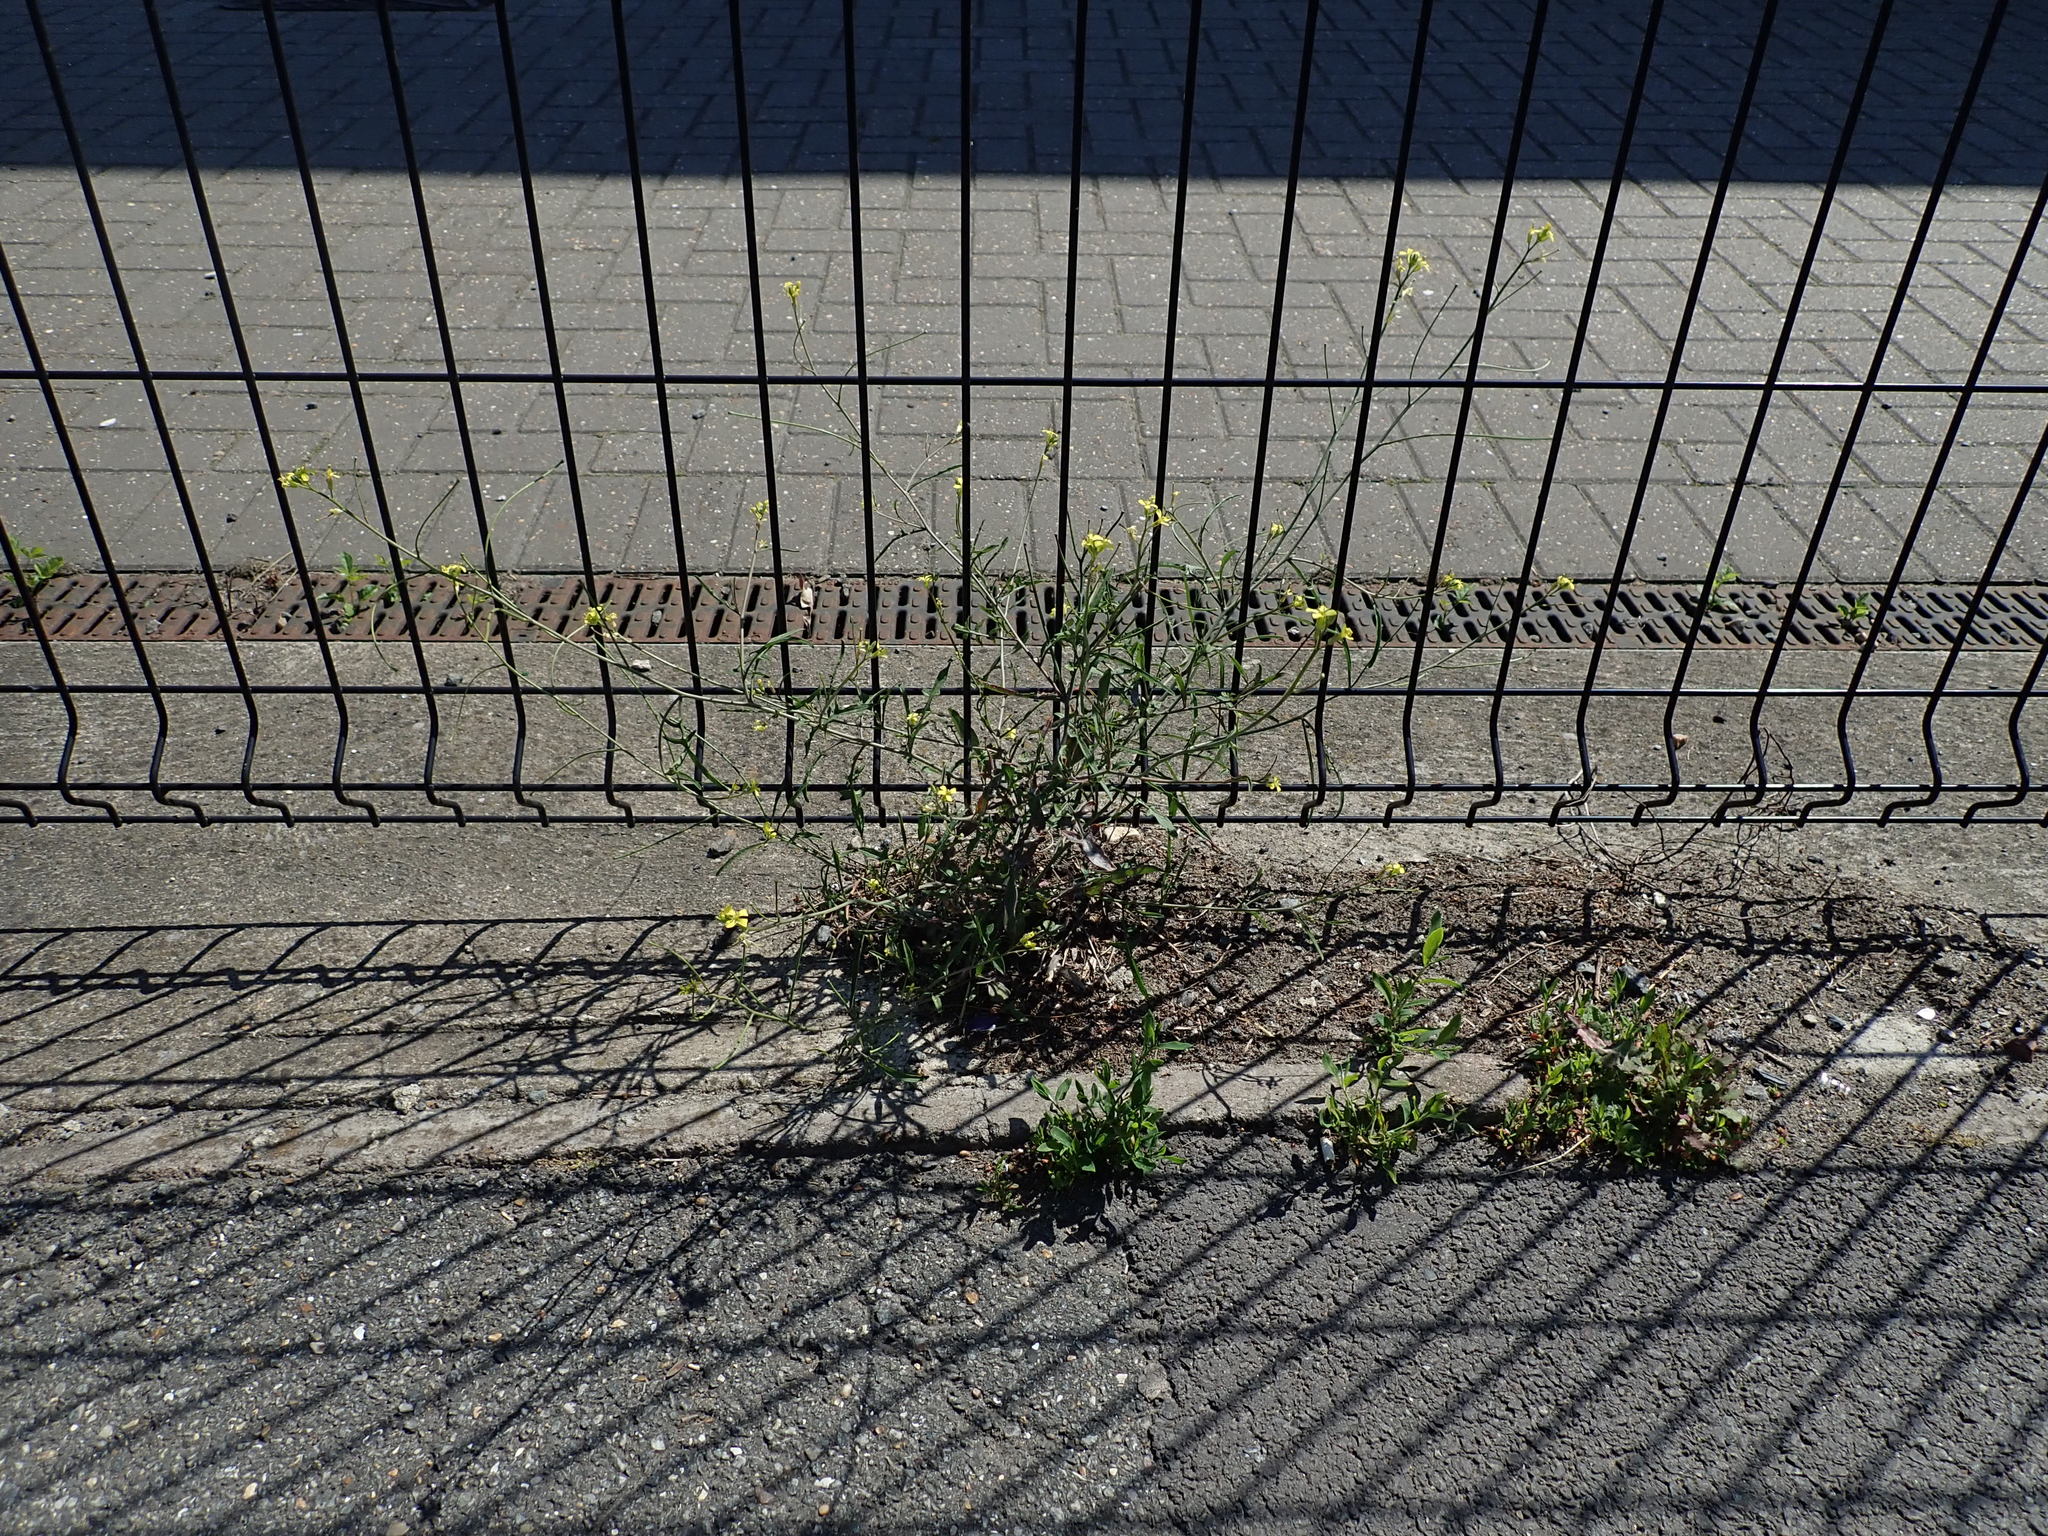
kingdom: Plantae
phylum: Tracheophyta
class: Magnoliopsida
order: Brassicales
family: Brassicaceae
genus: Sisymbrium
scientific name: Sisymbrium orientale
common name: Eastern rocket
